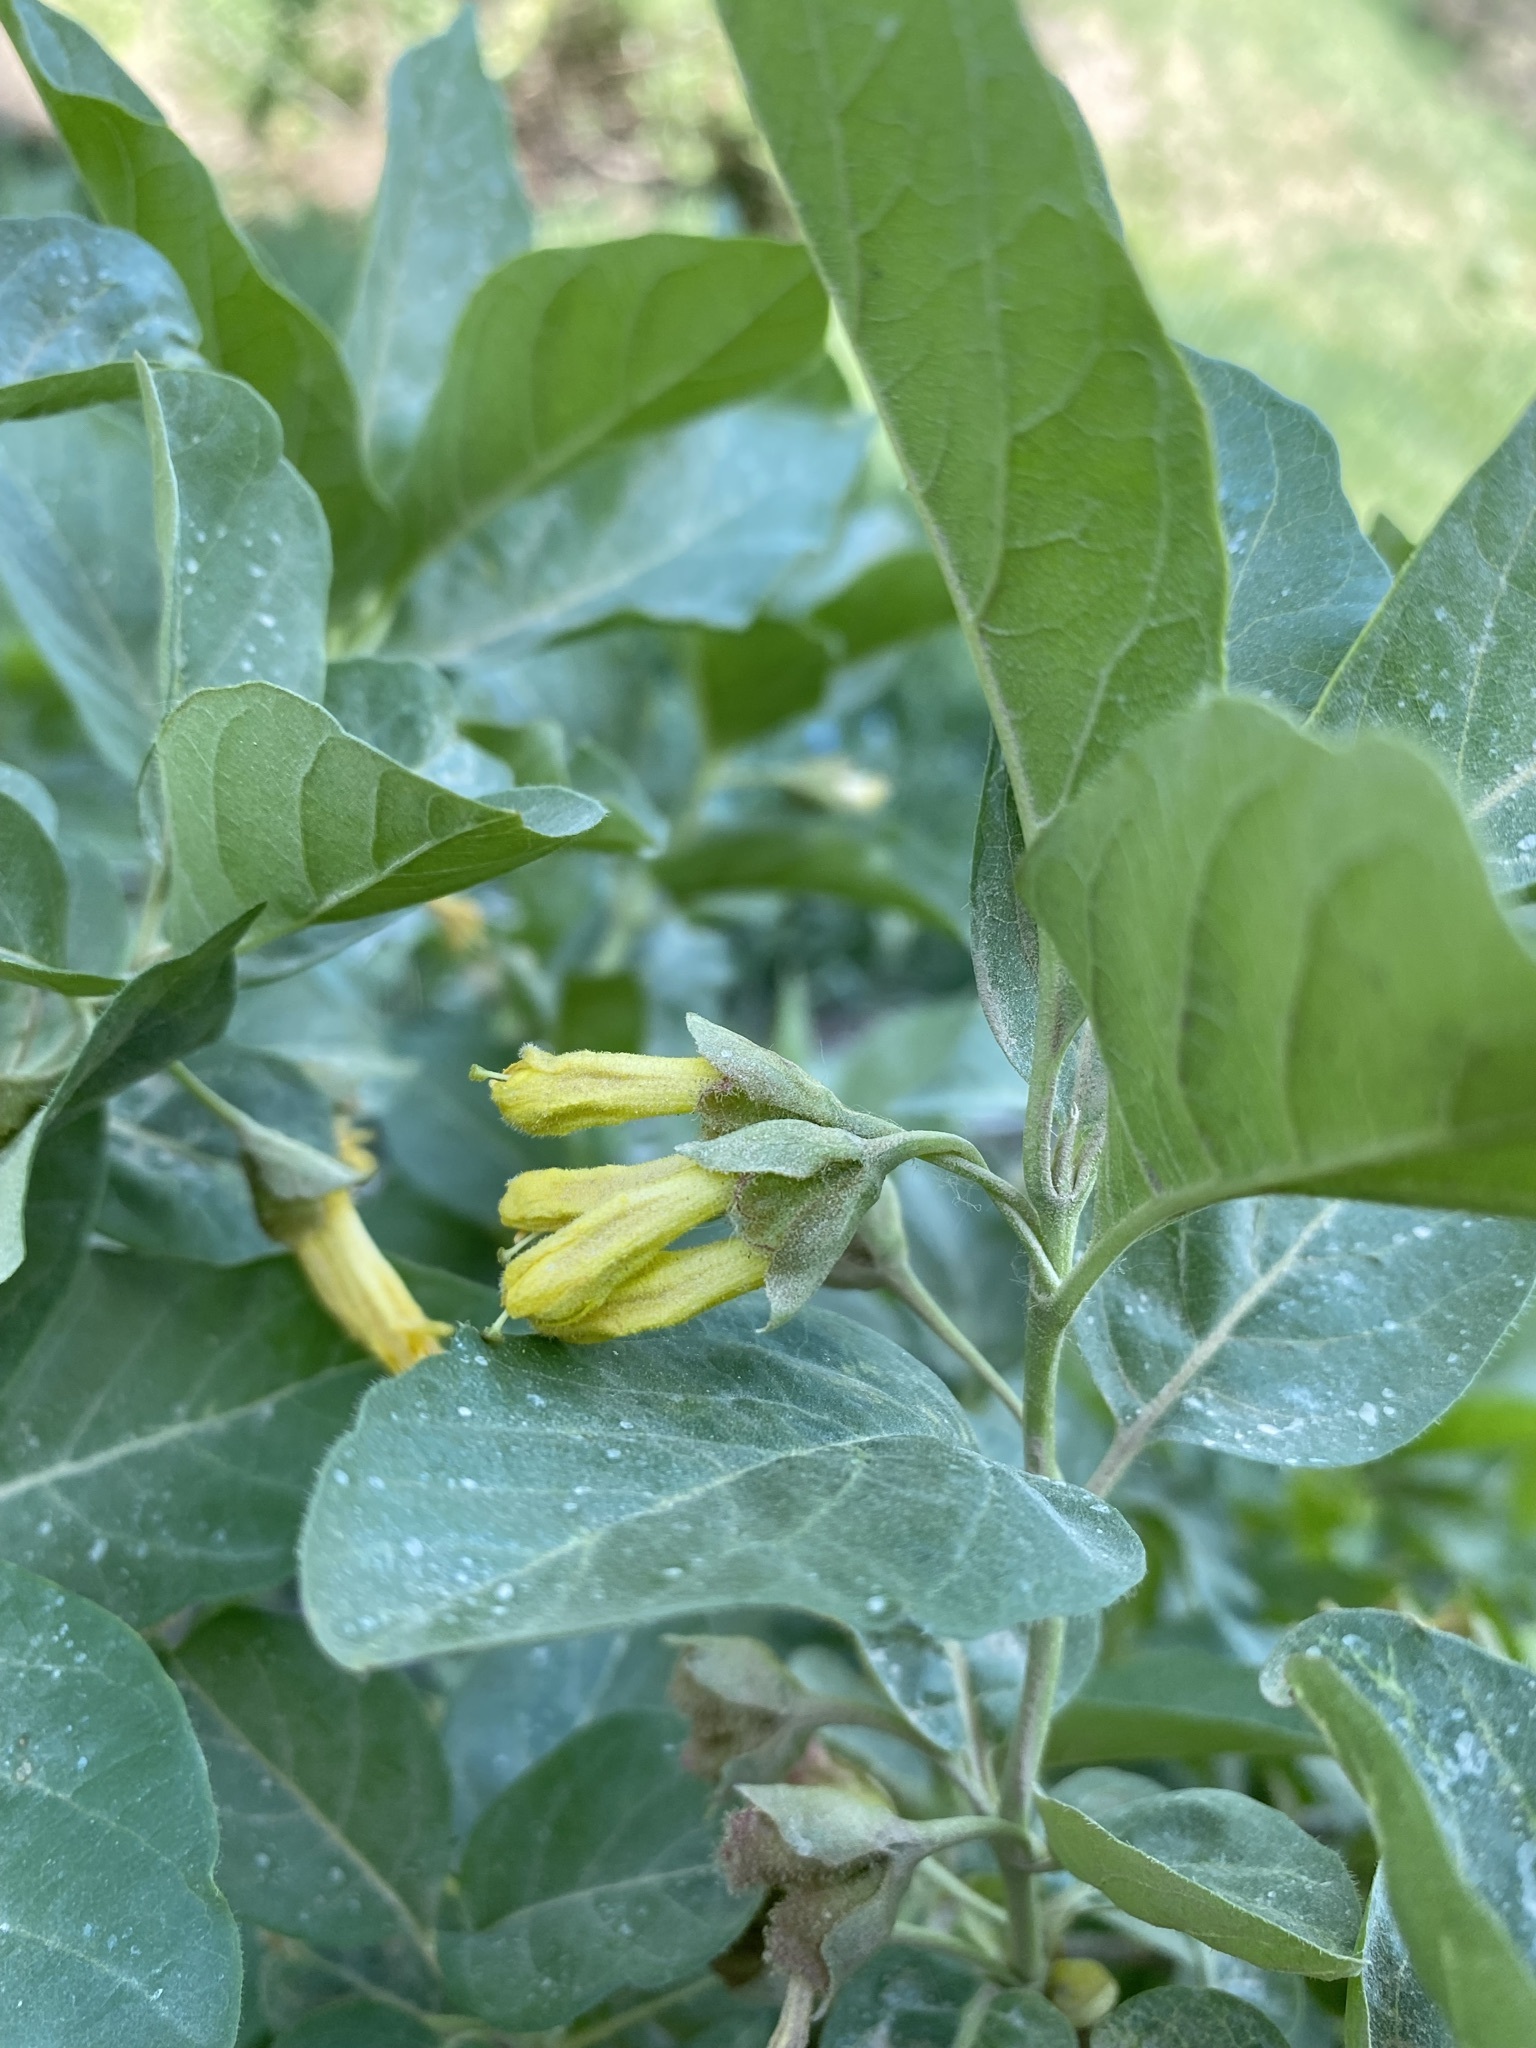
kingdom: Plantae
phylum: Tracheophyta
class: Magnoliopsida
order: Dipsacales
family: Caprifoliaceae
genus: Lonicera
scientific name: Lonicera involucrata
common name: Californian honeysuckle
